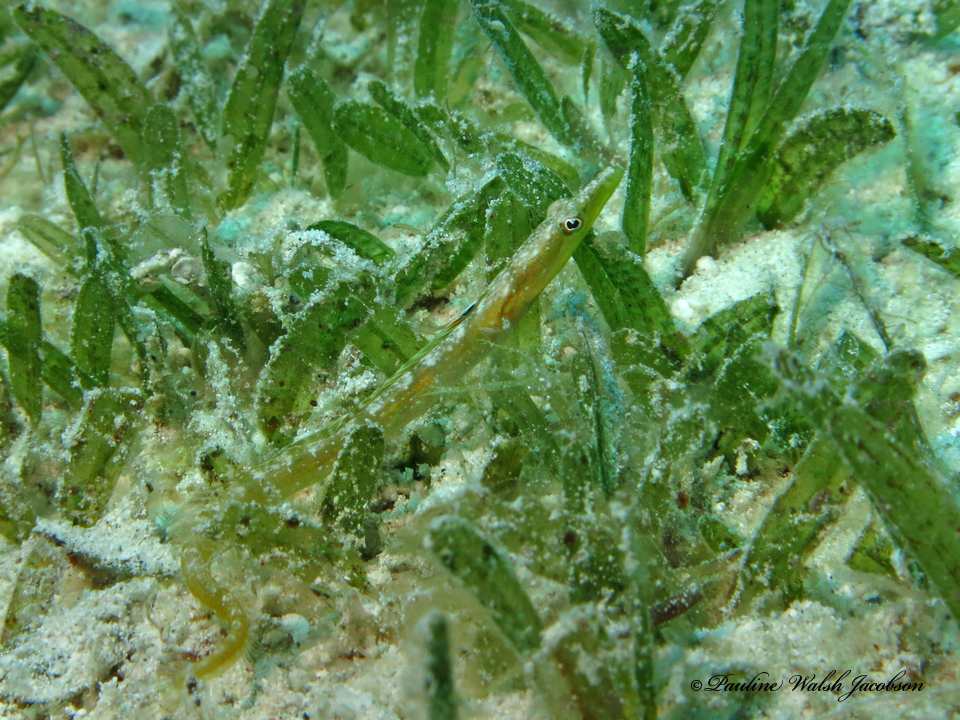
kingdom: Animalia
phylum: Chordata
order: Perciformes
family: Chaenopsidae
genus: Chaenopsis
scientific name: Chaenopsis limbaughi
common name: Yellowface pikeblenny
